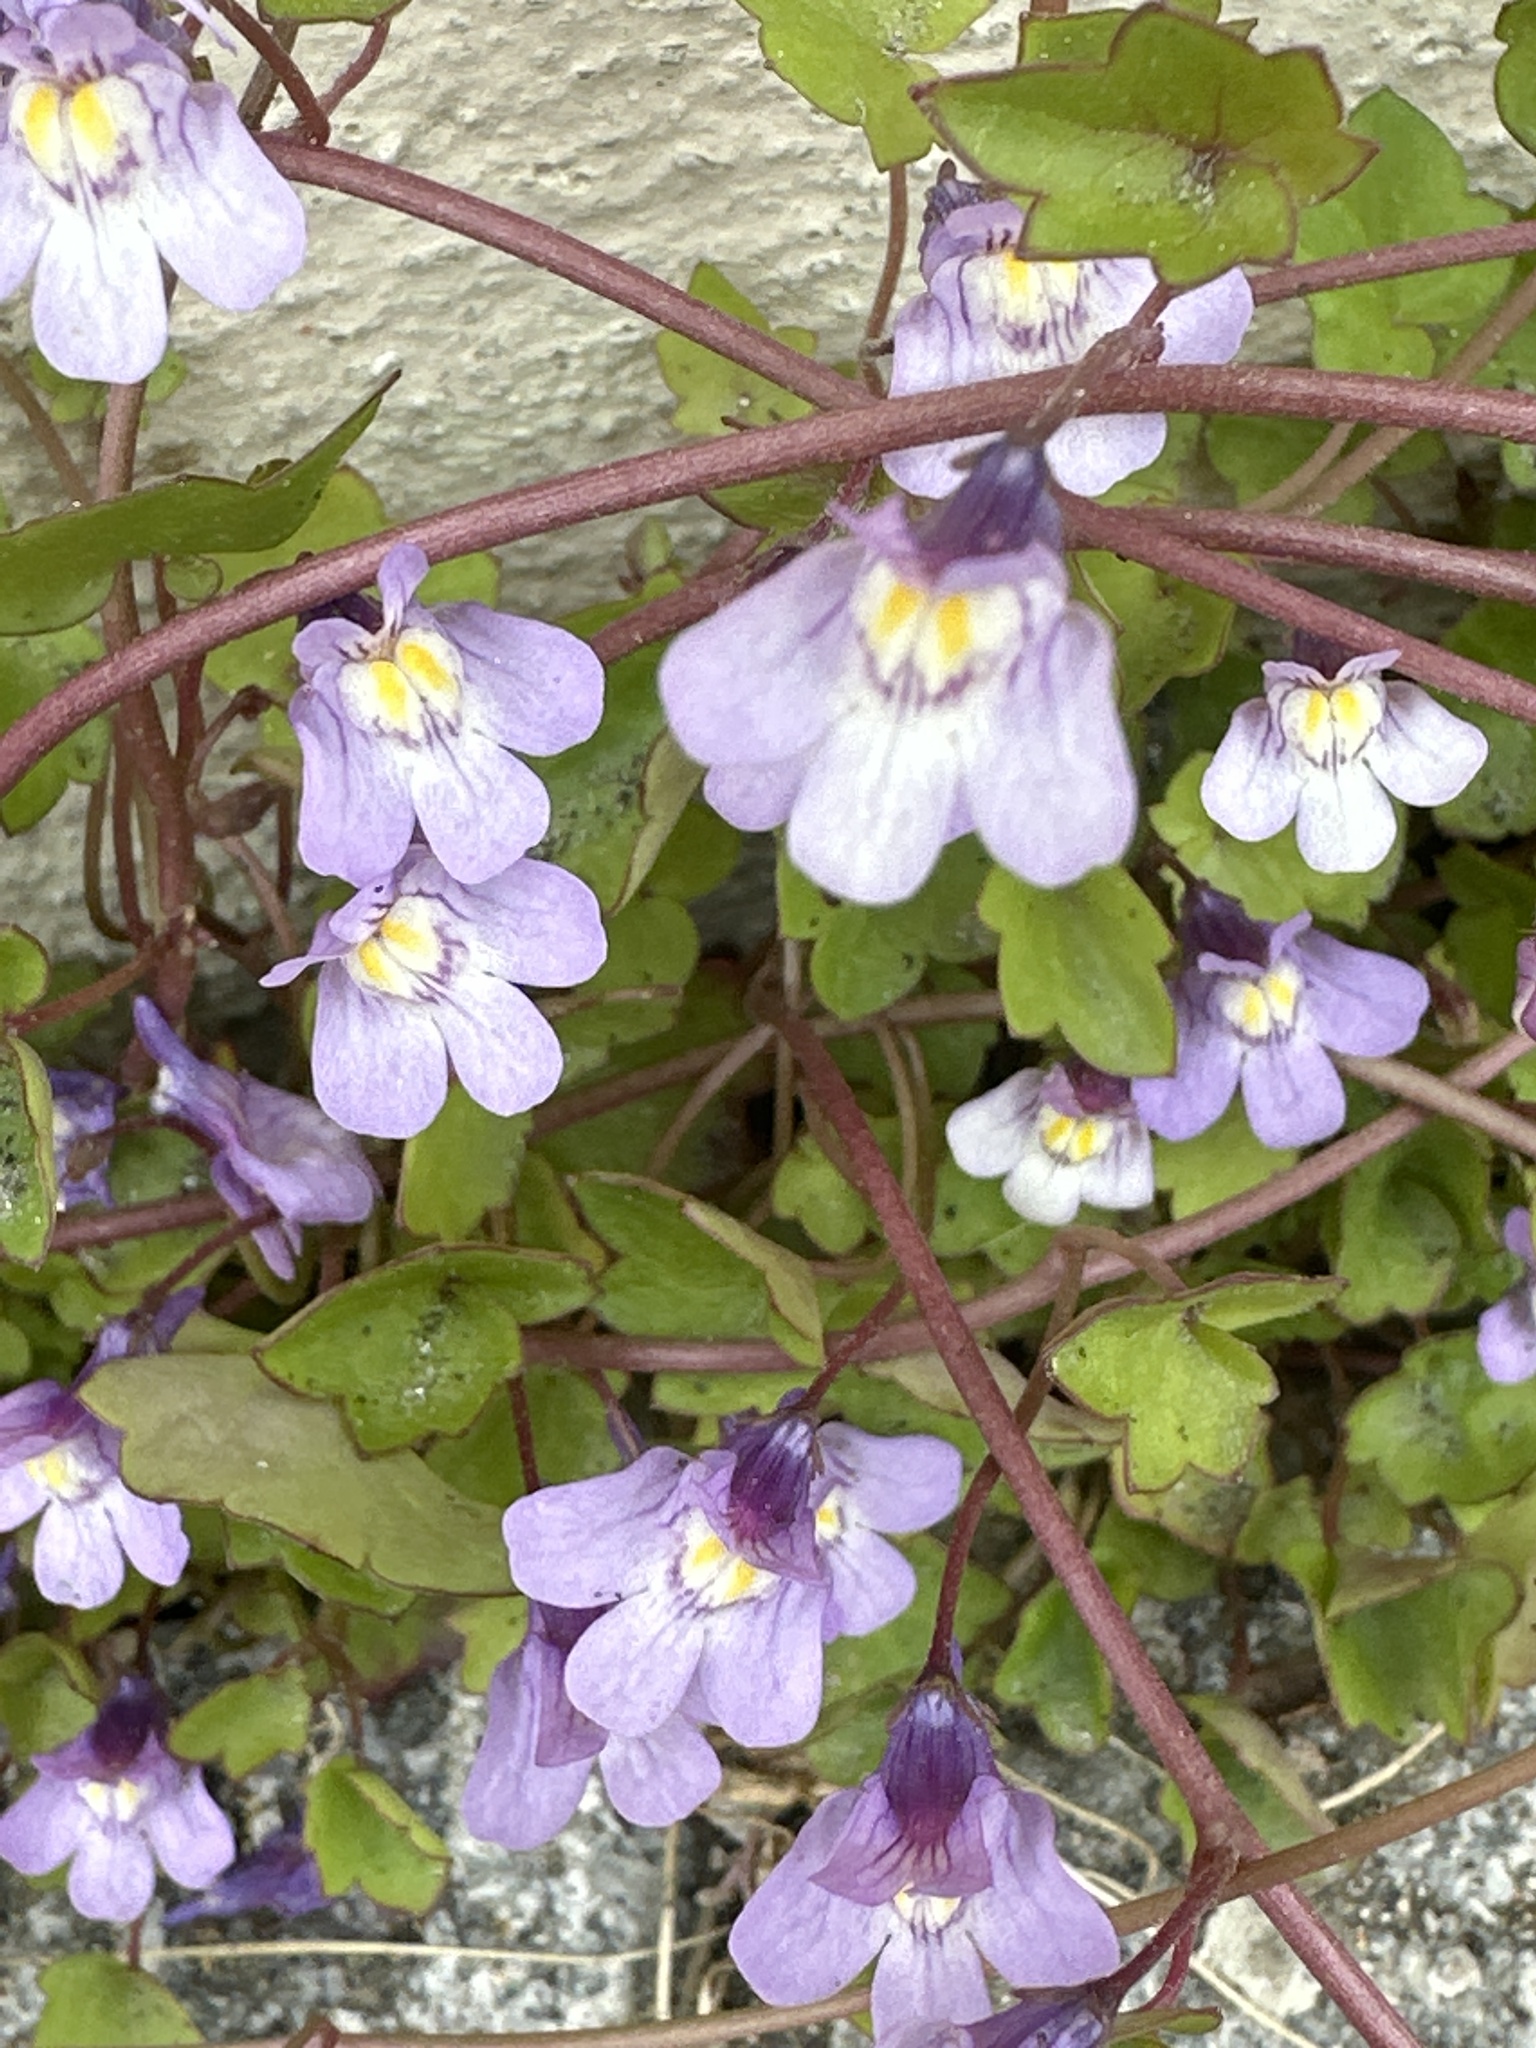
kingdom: Plantae
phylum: Tracheophyta
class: Magnoliopsida
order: Lamiales
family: Plantaginaceae
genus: Cymbalaria
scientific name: Cymbalaria muralis
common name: Ivy-leaved toadflax
